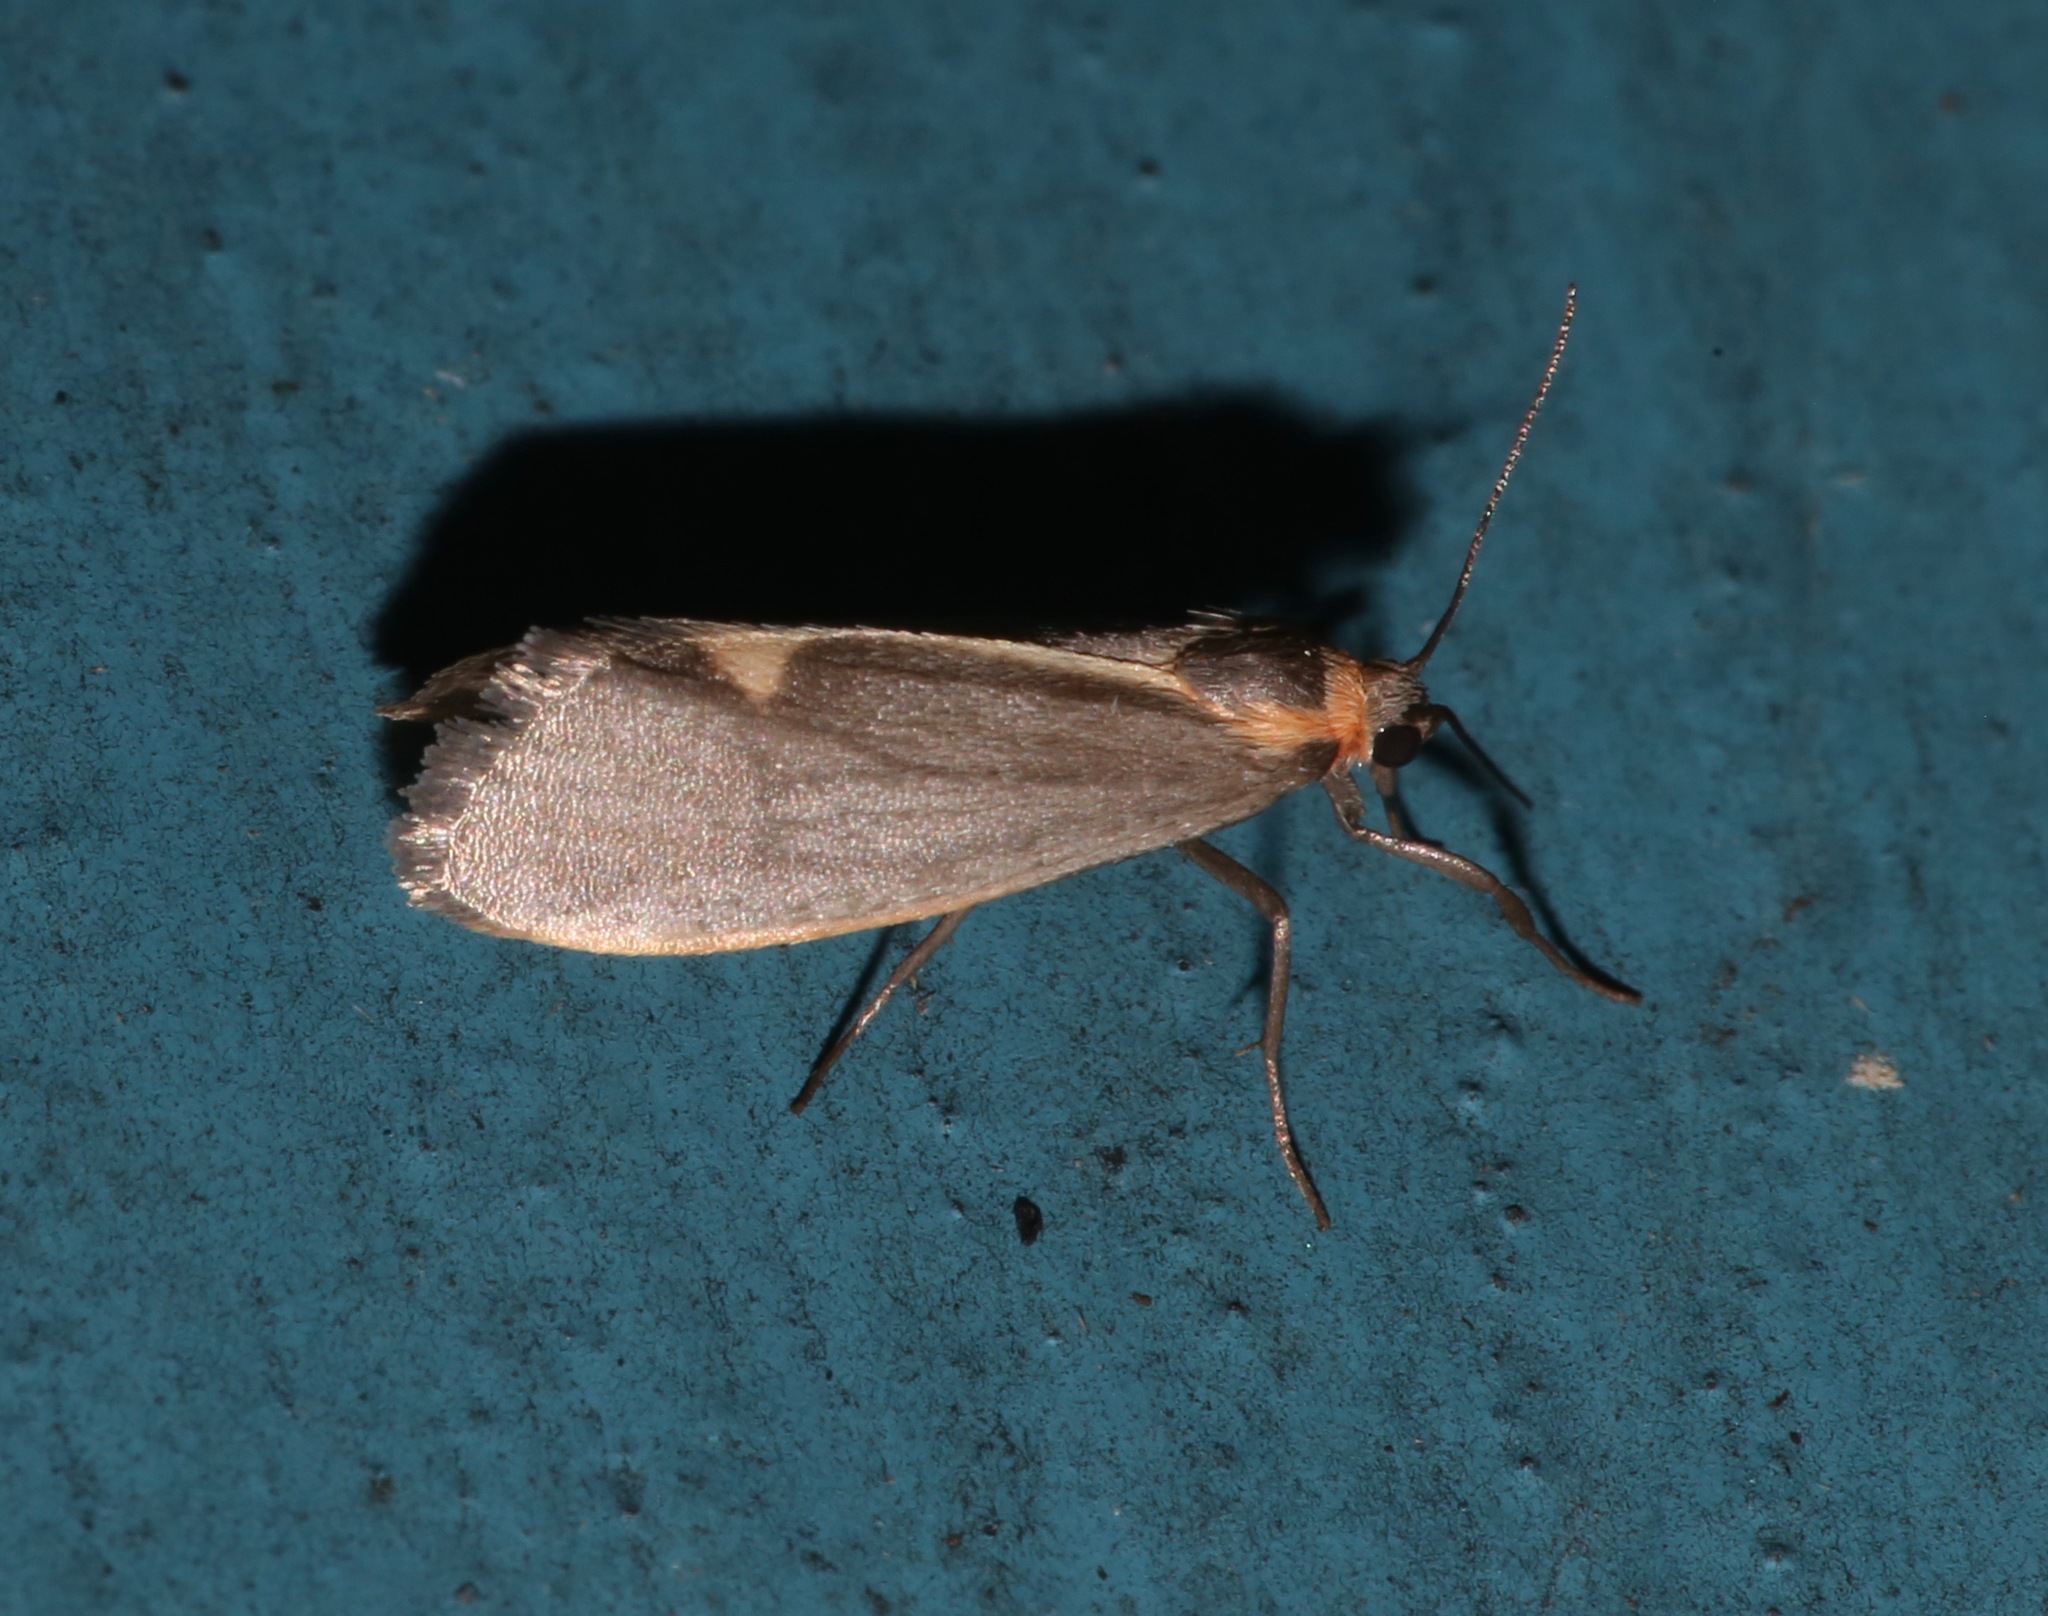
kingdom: Animalia
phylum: Arthropoda
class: Insecta
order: Lepidoptera
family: Erebidae
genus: Cisthene
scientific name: Cisthene striata
